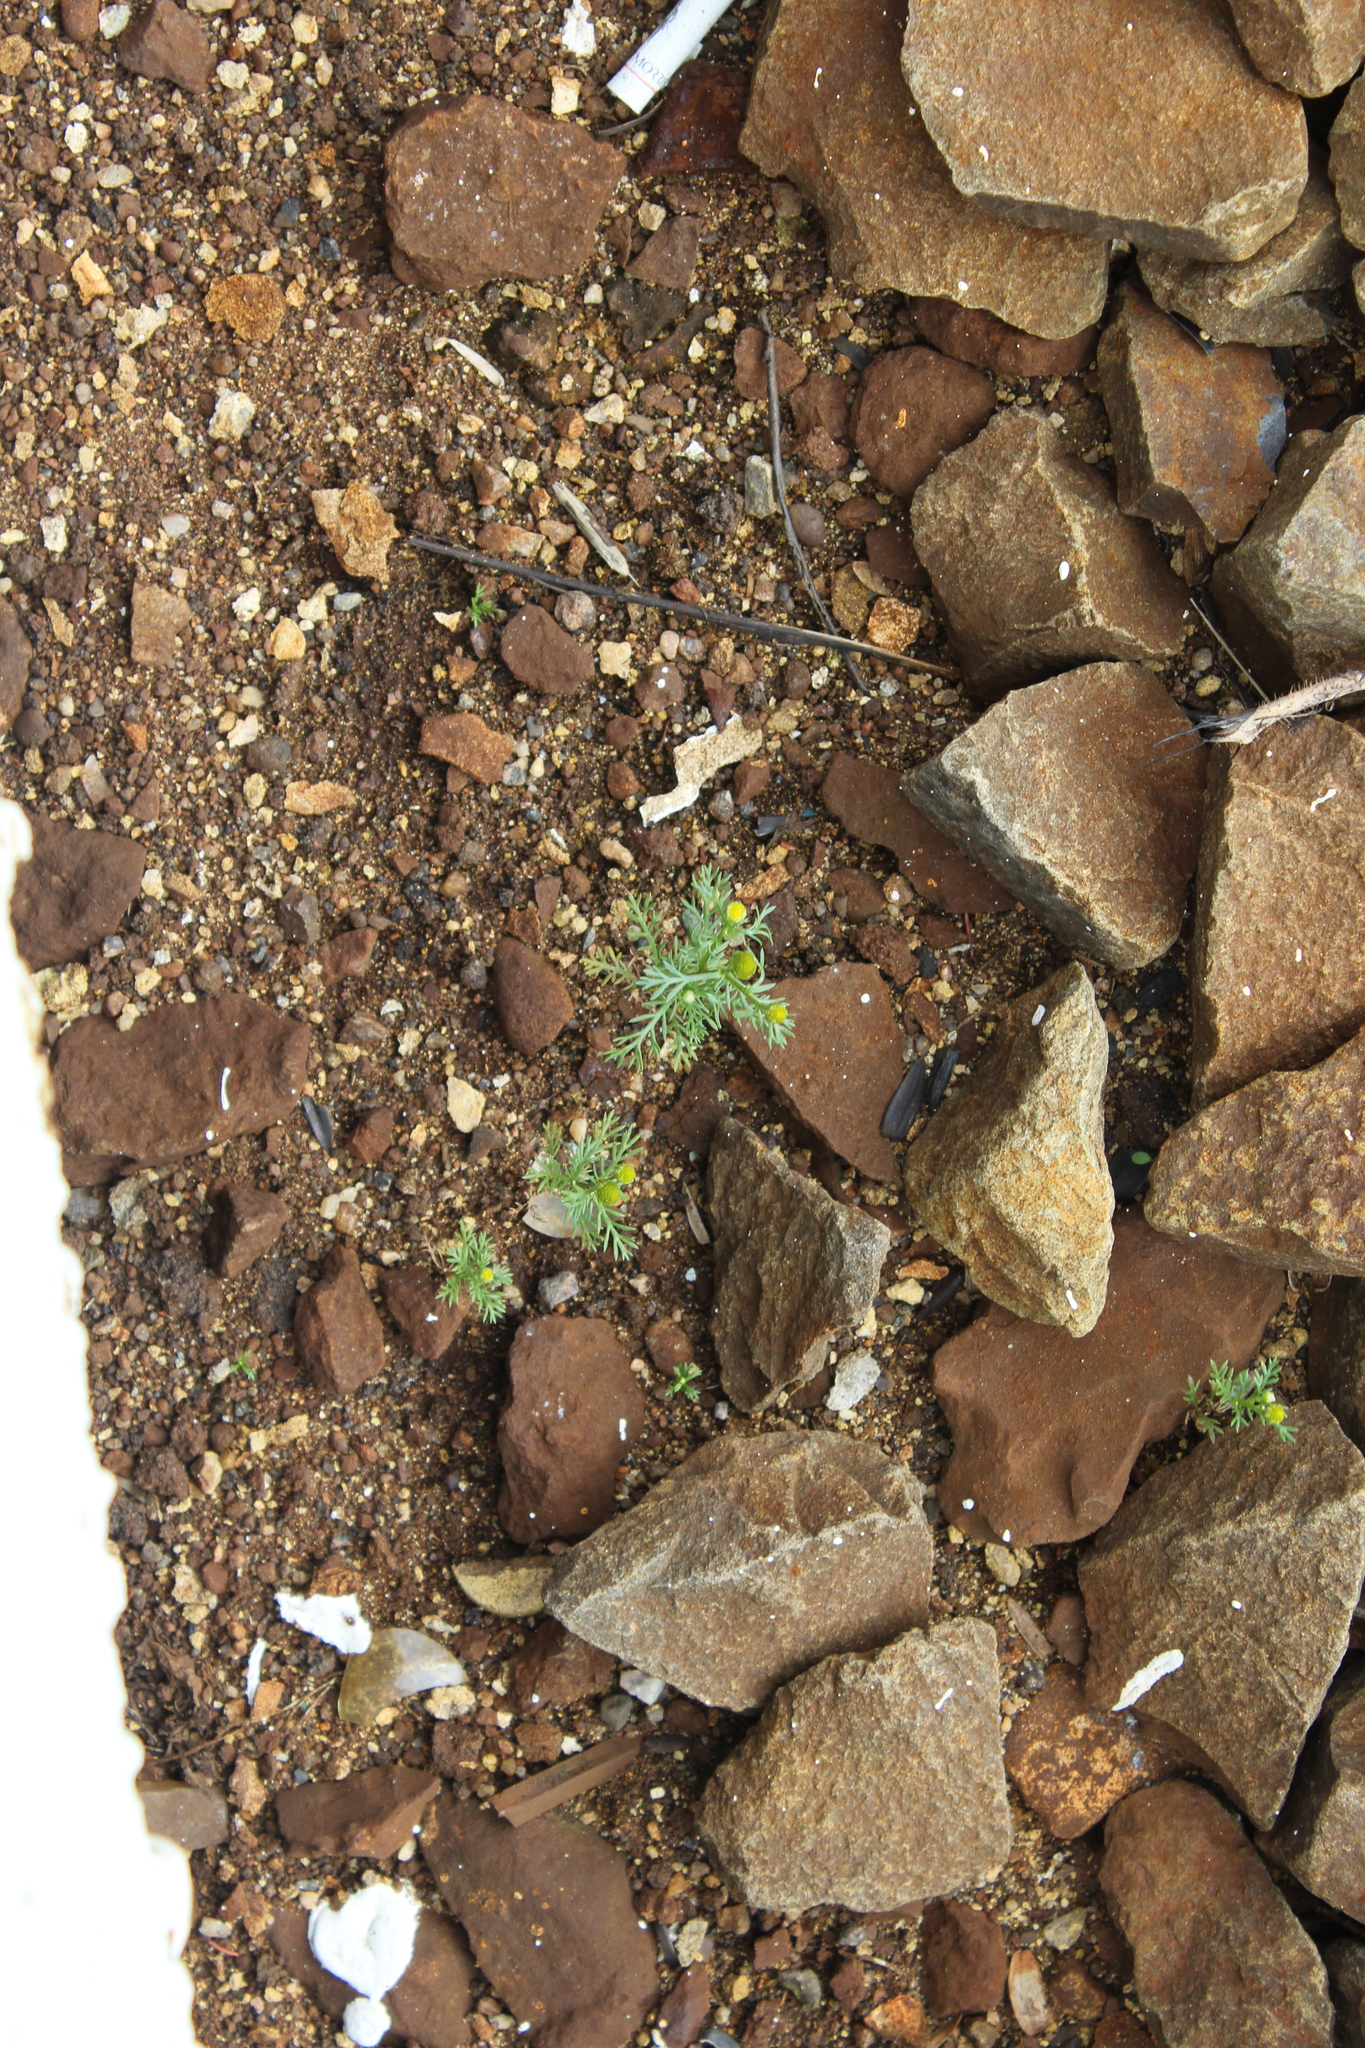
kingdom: Plantae
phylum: Tracheophyta
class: Magnoliopsida
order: Asterales
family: Asteraceae
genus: Matricaria
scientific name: Matricaria discoidea
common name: Disc mayweed
